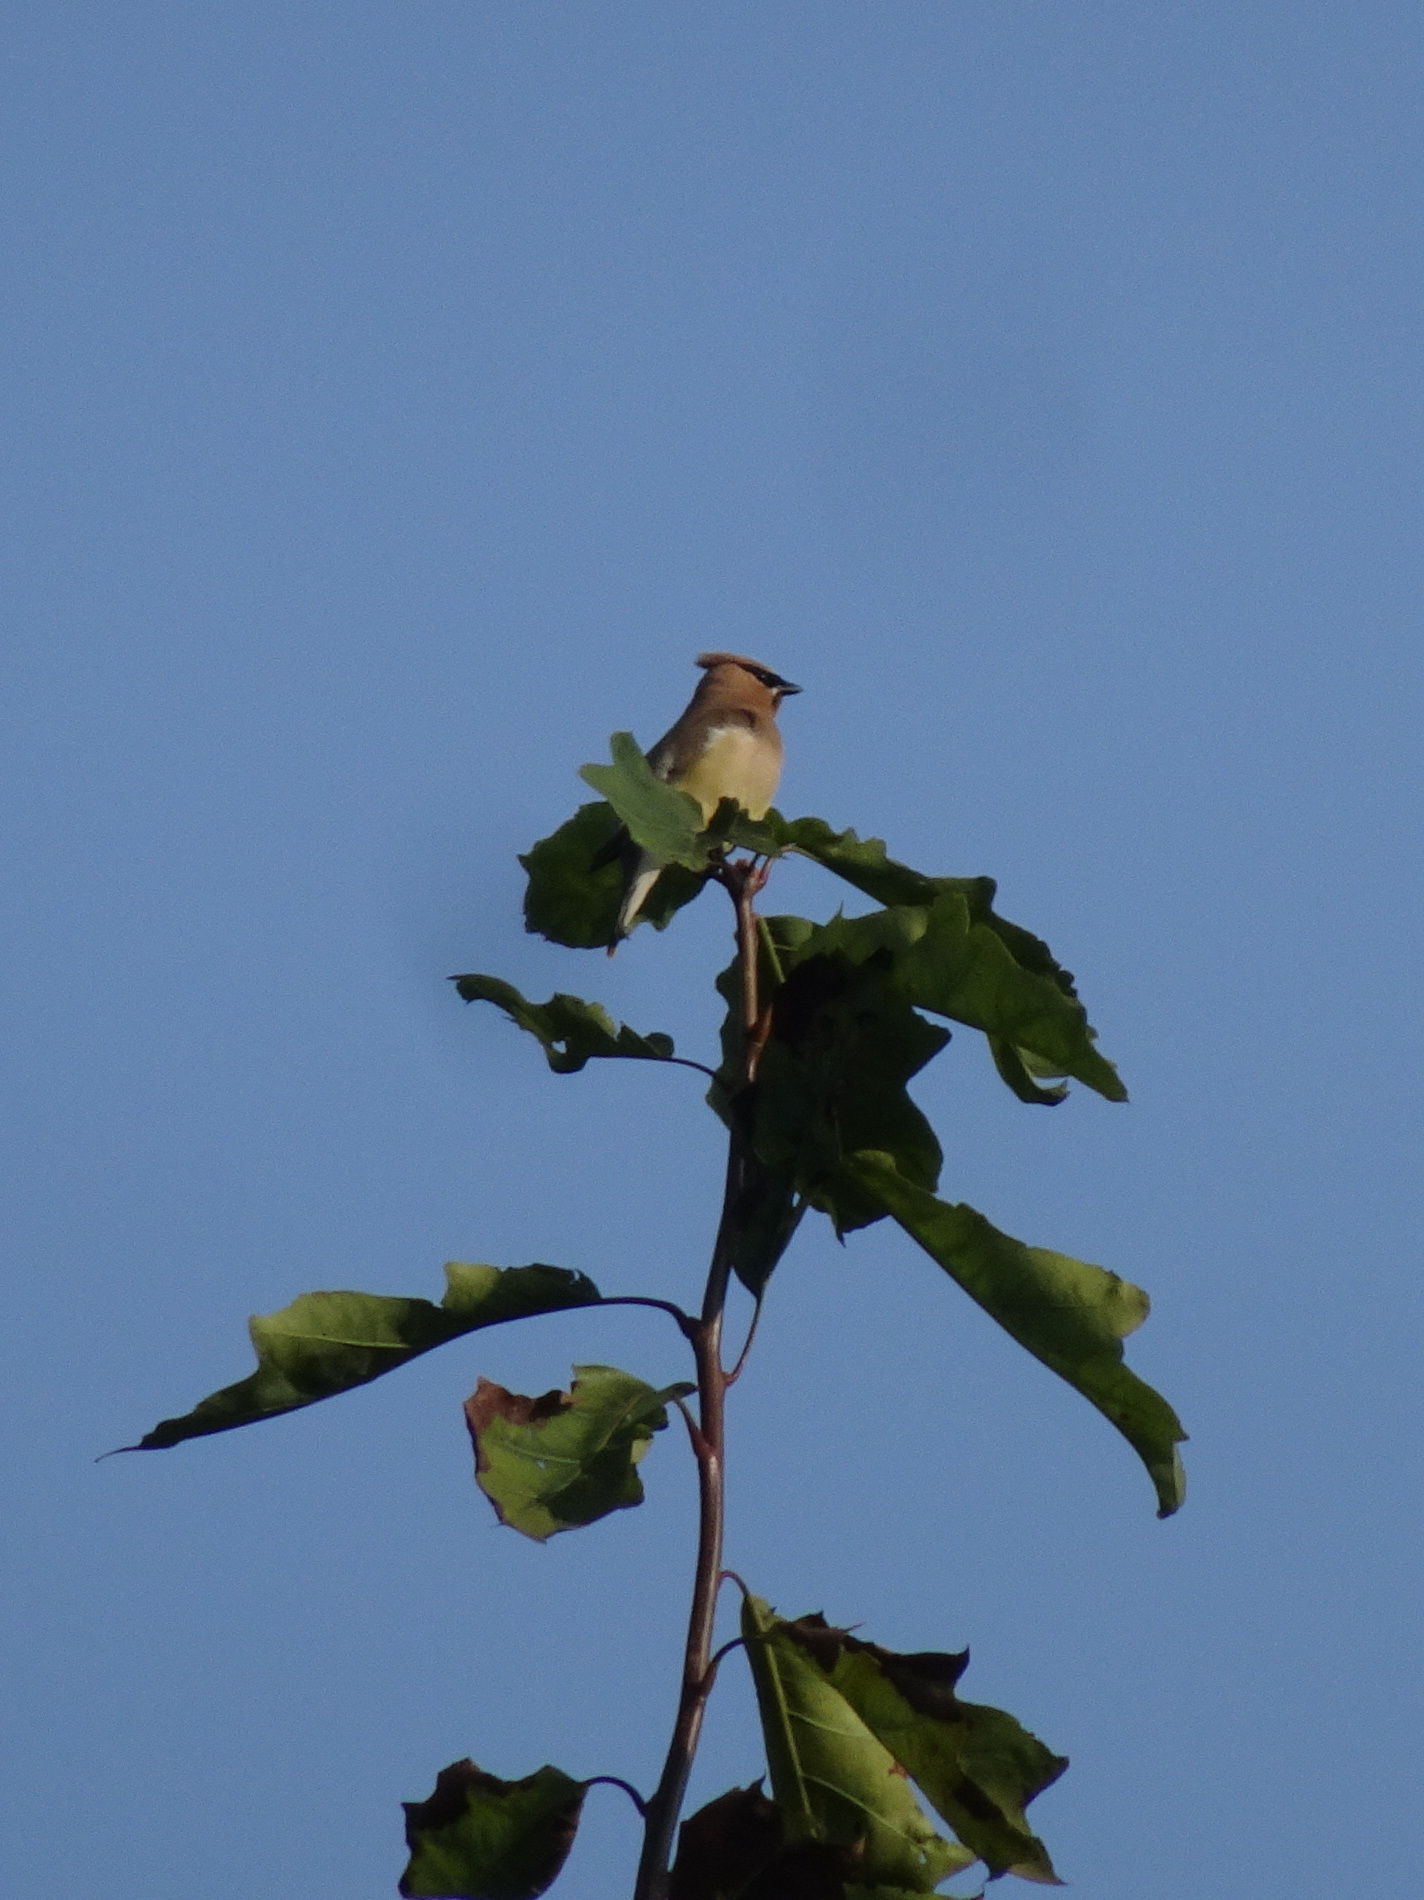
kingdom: Animalia
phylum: Chordata
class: Aves
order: Passeriformes
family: Bombycillidae
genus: Bombycilla
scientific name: Bombycilla cedrorum
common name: Cedar waxwing
